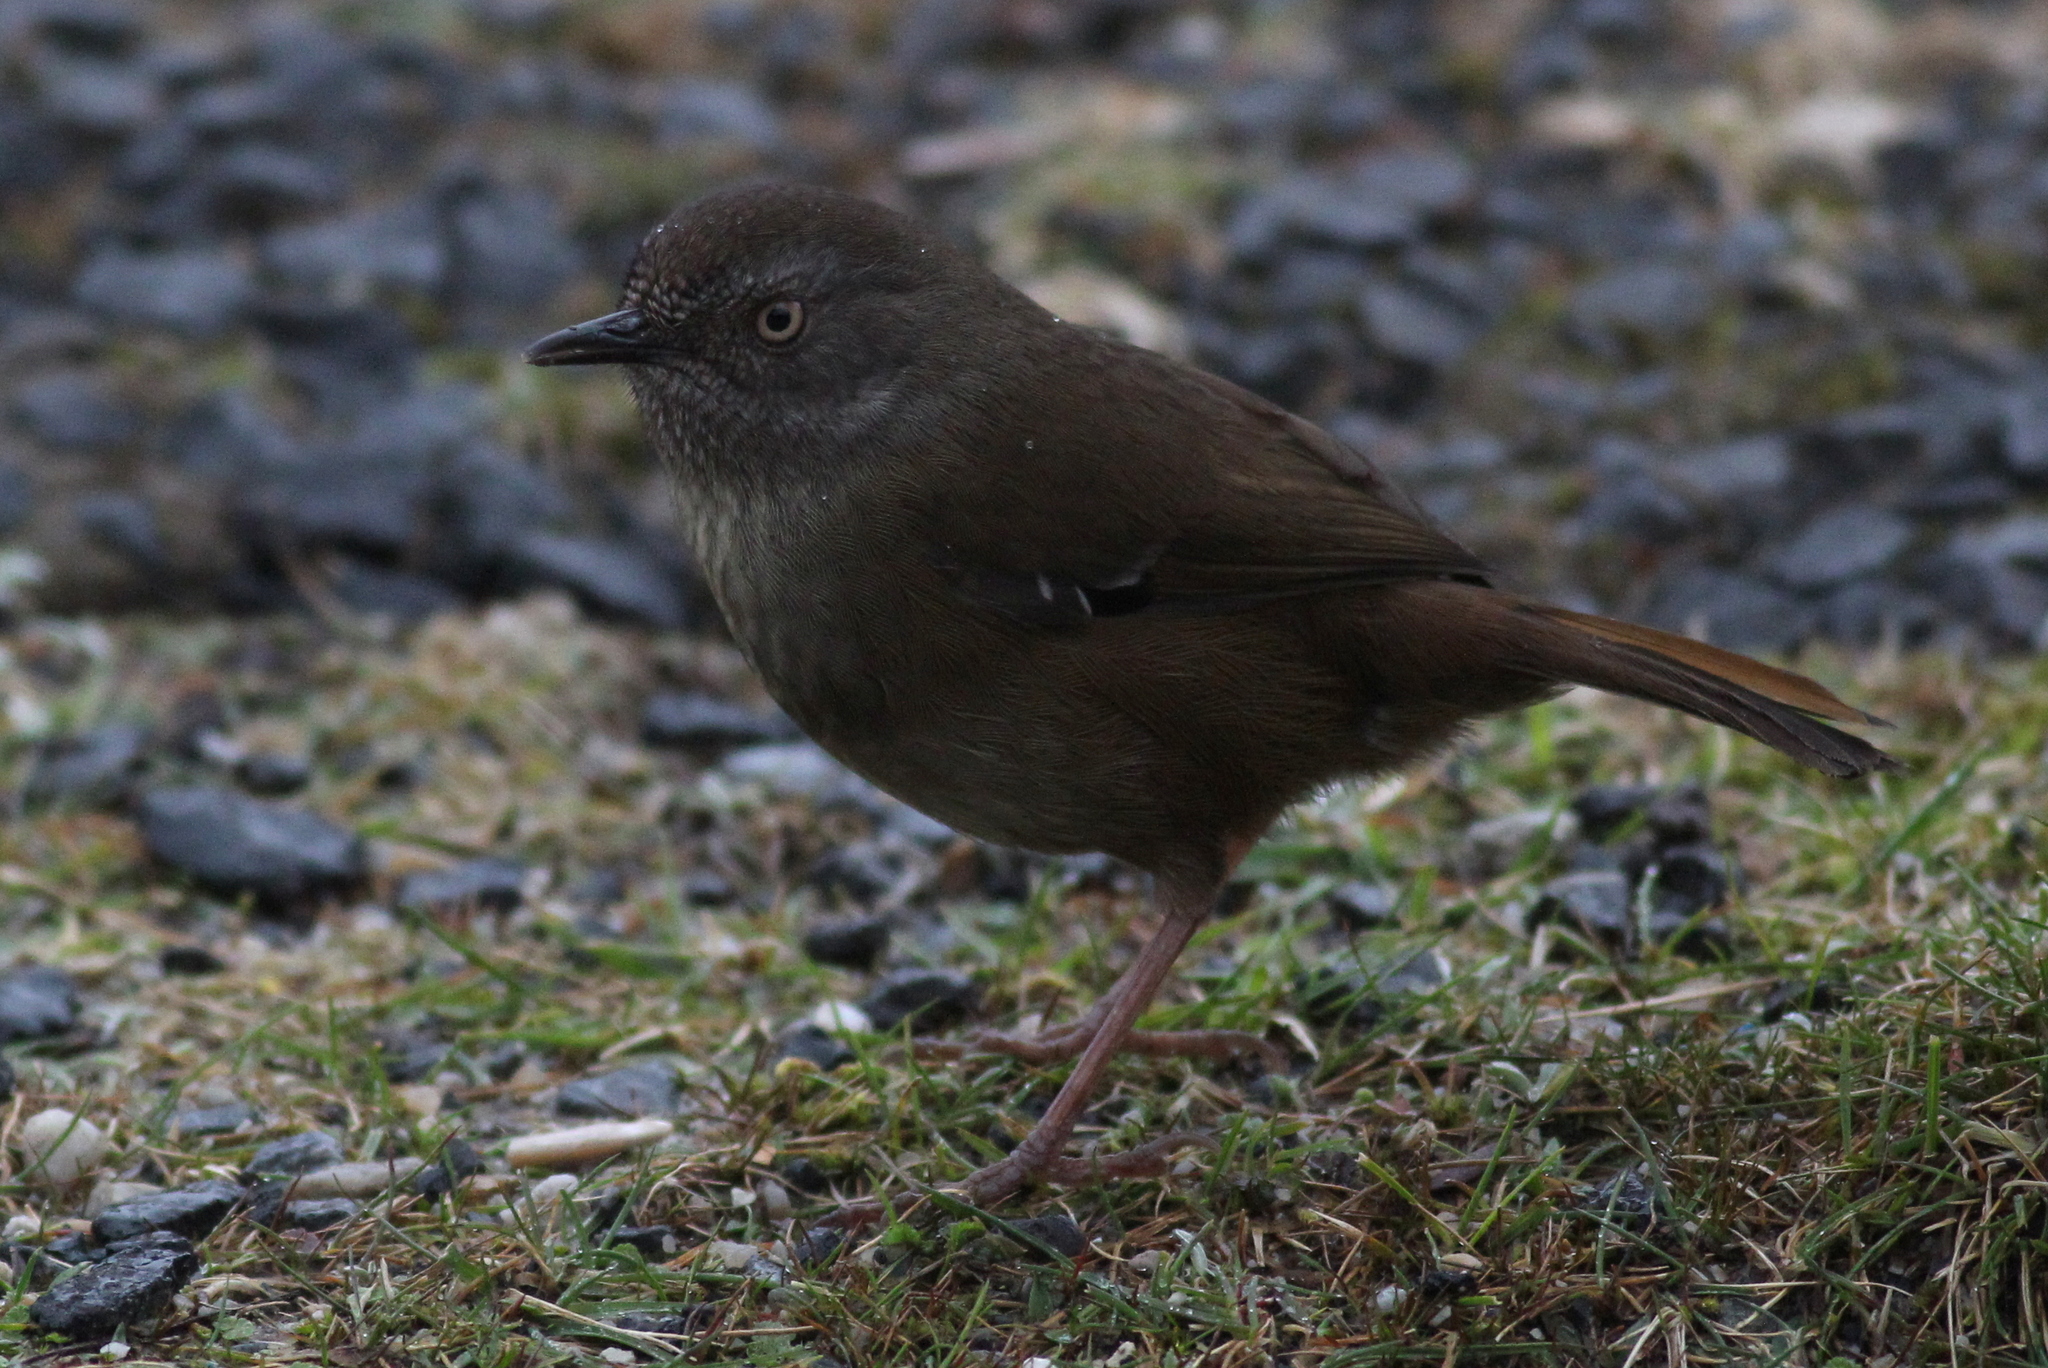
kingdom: Animalia
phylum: Chordata
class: Aves
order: Passeriformes
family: Acanthizidae
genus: Sericornis
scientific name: Sericornis humilis
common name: Tasmanian scrubwren
